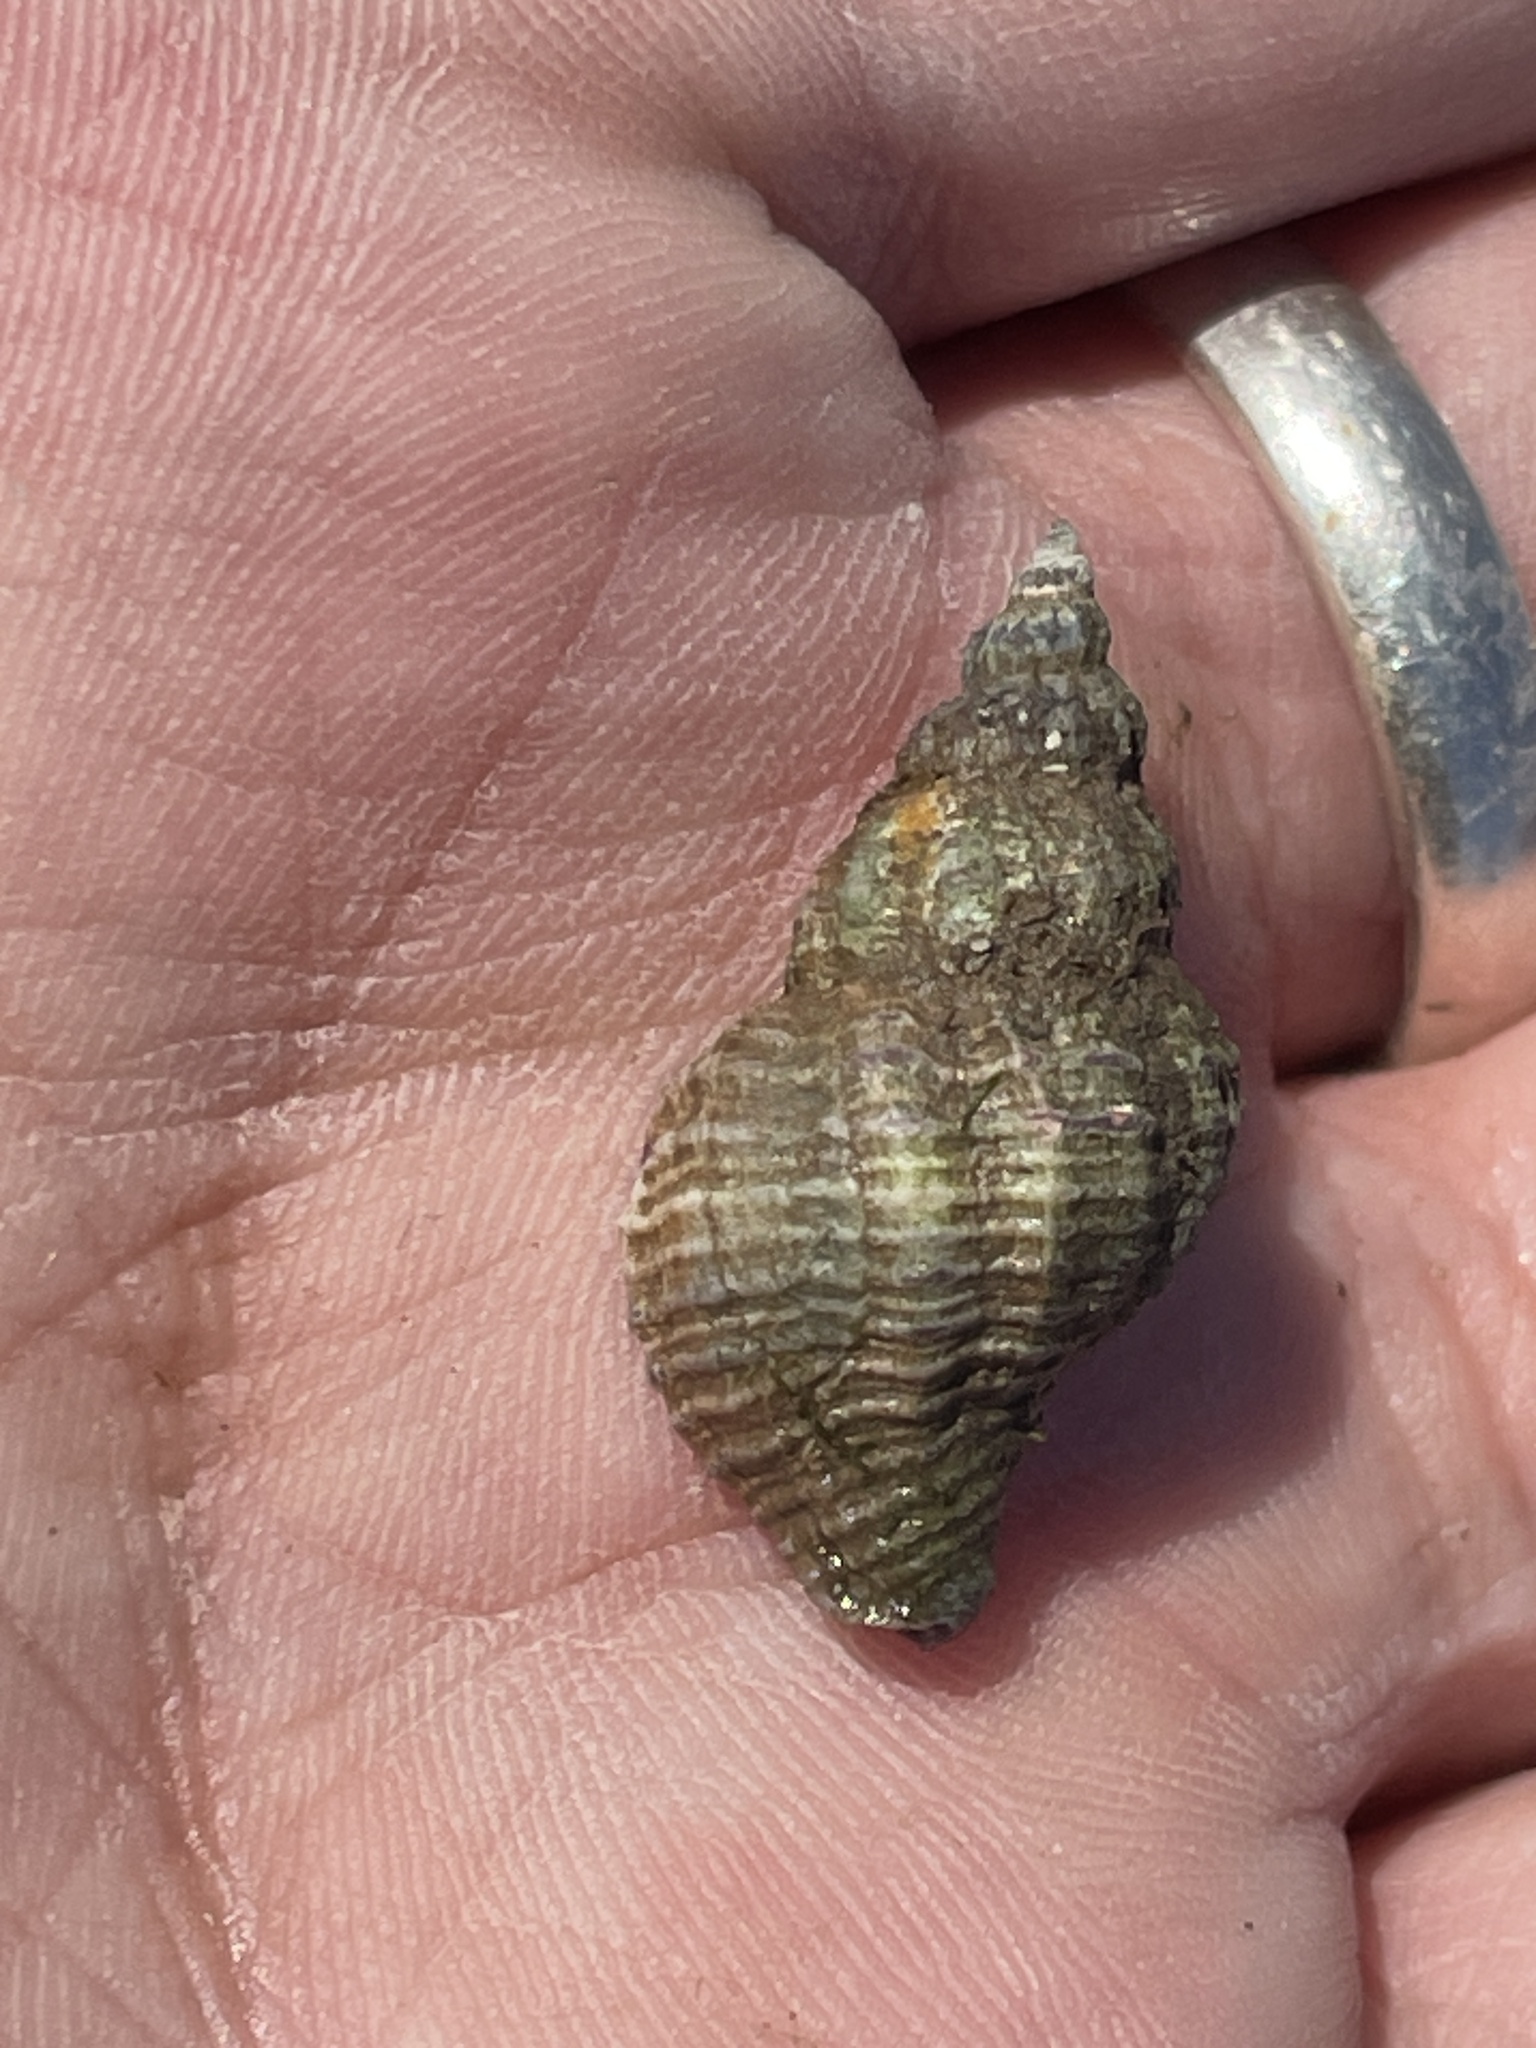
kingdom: Animalia
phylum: Mollusca
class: Gastropoda
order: Neogastropoda
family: Muricidae
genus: Urosalpinx
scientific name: Urosalpinx cinerea
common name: American sting winkle
